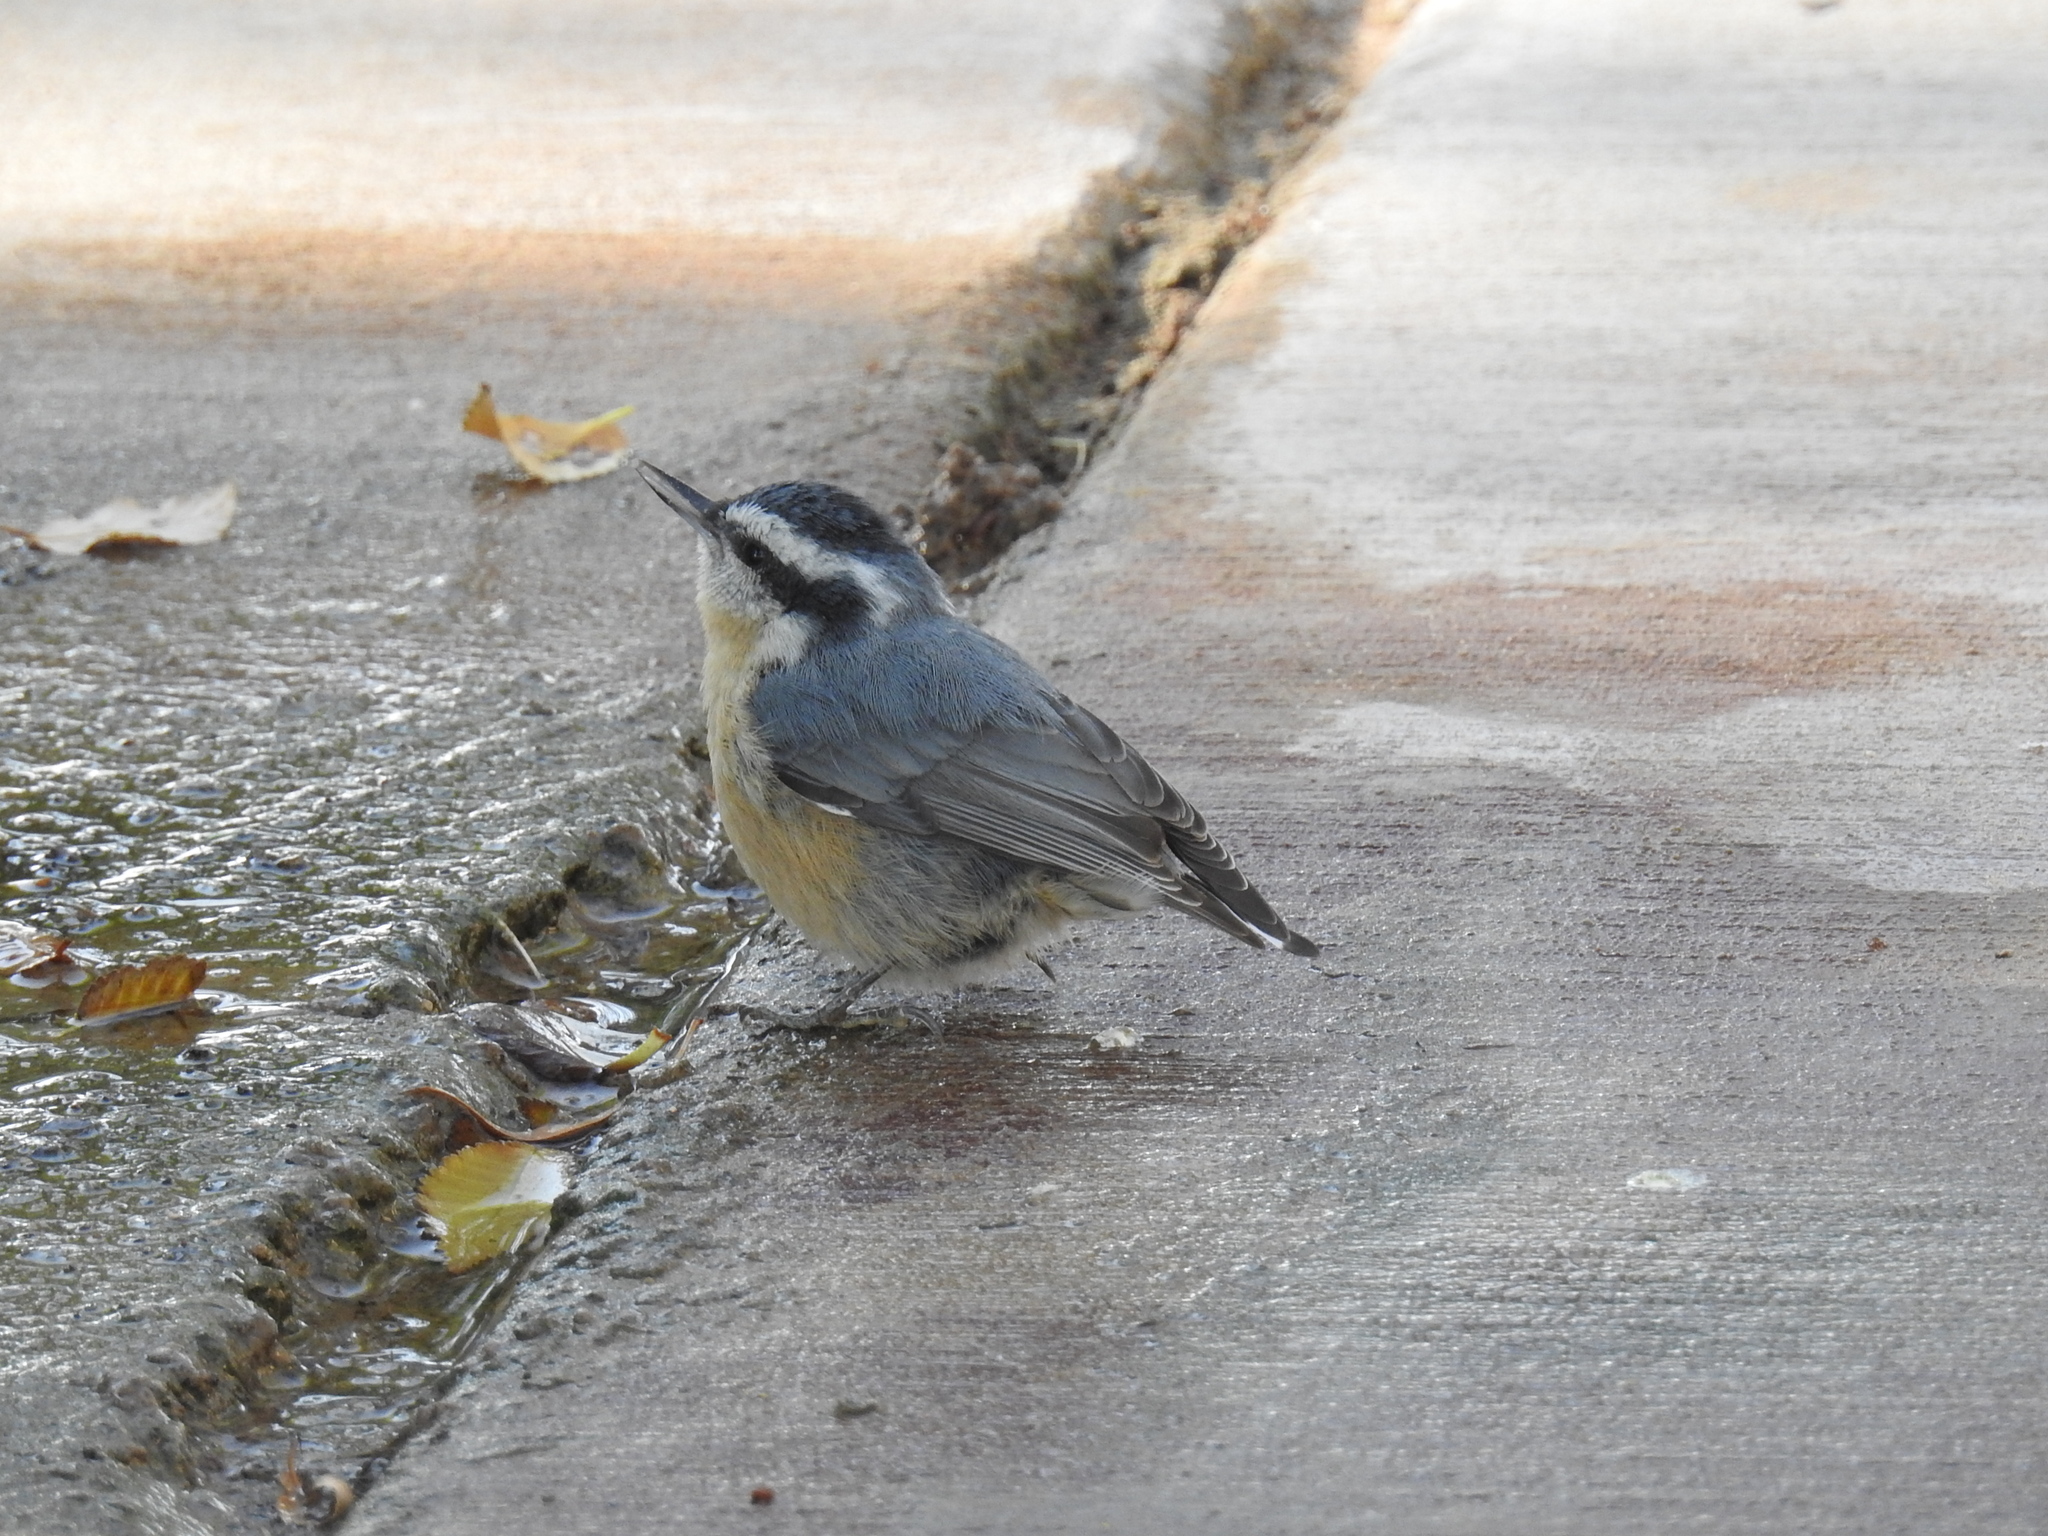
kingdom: Animalia
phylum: Chordata
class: Aves
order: Passeriformes
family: Sittidae
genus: Sitta
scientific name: Sitta canadensis
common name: Red-breasted nuthatch
